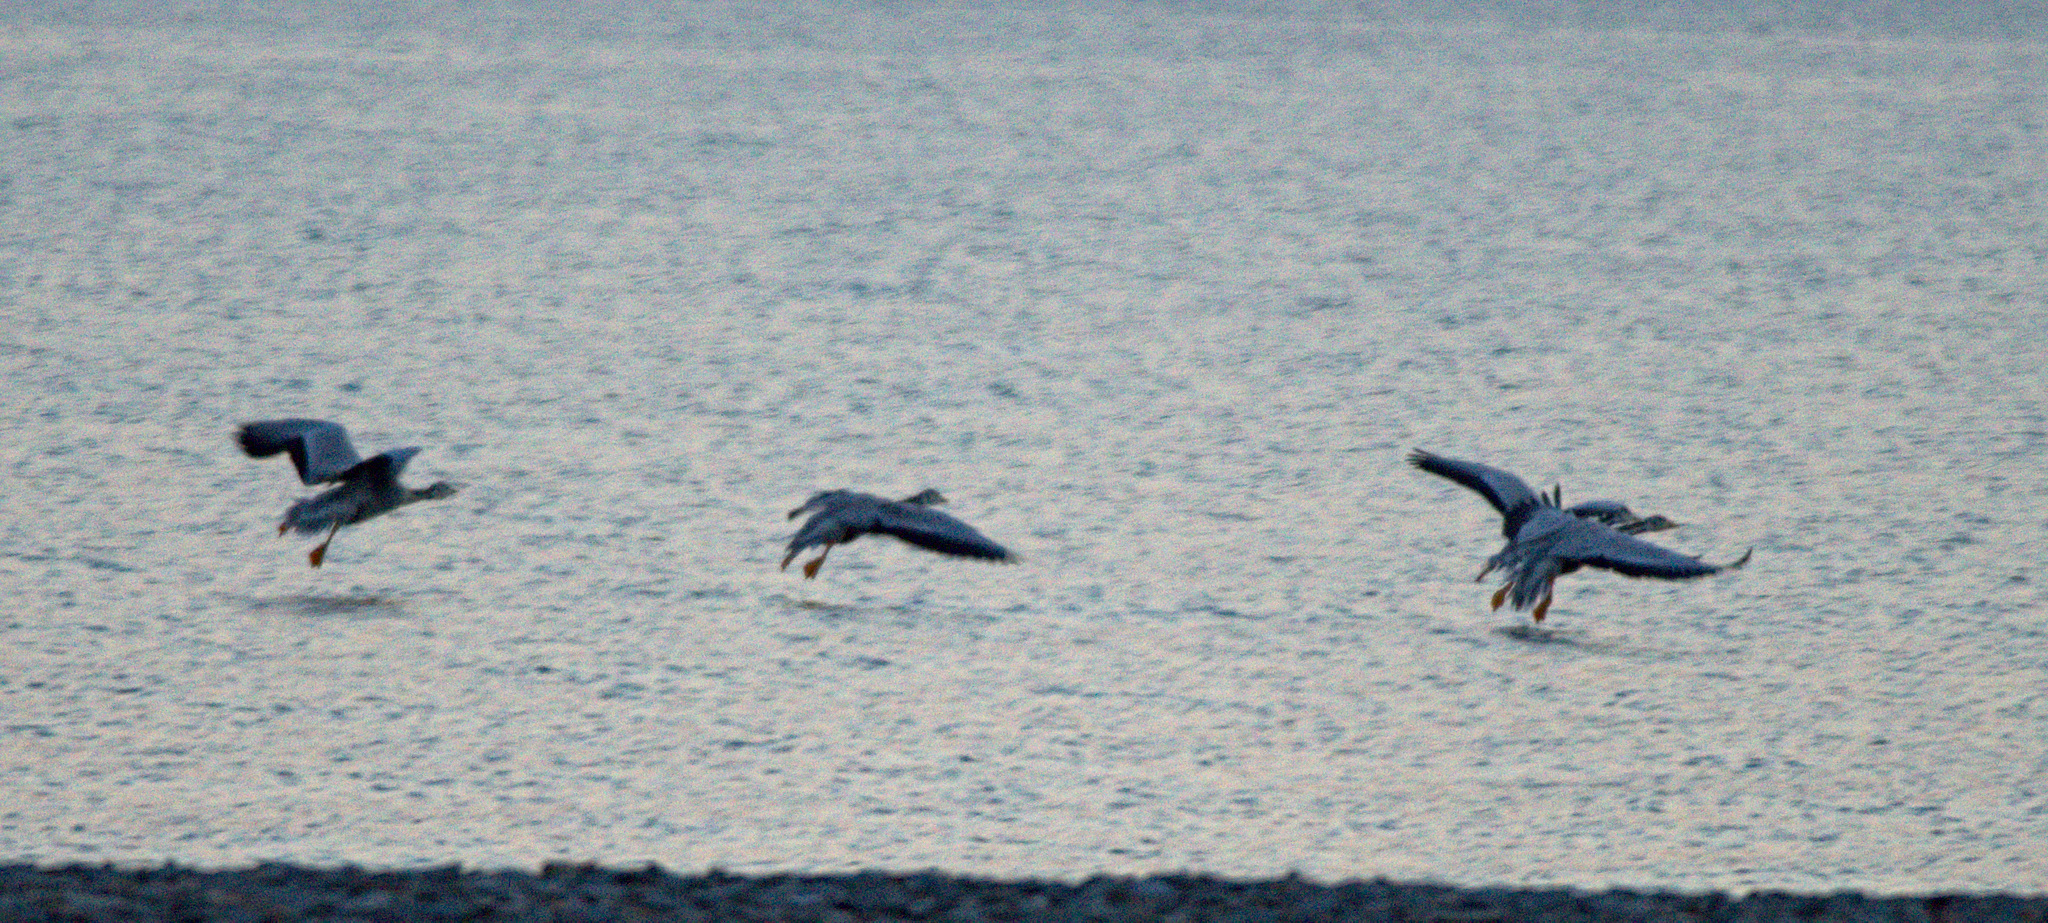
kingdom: Animalia
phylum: Chordata
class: Aves
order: Anseriformes
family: Anatidae
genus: Anser
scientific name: Anser indicus
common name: Bar-headed goose
